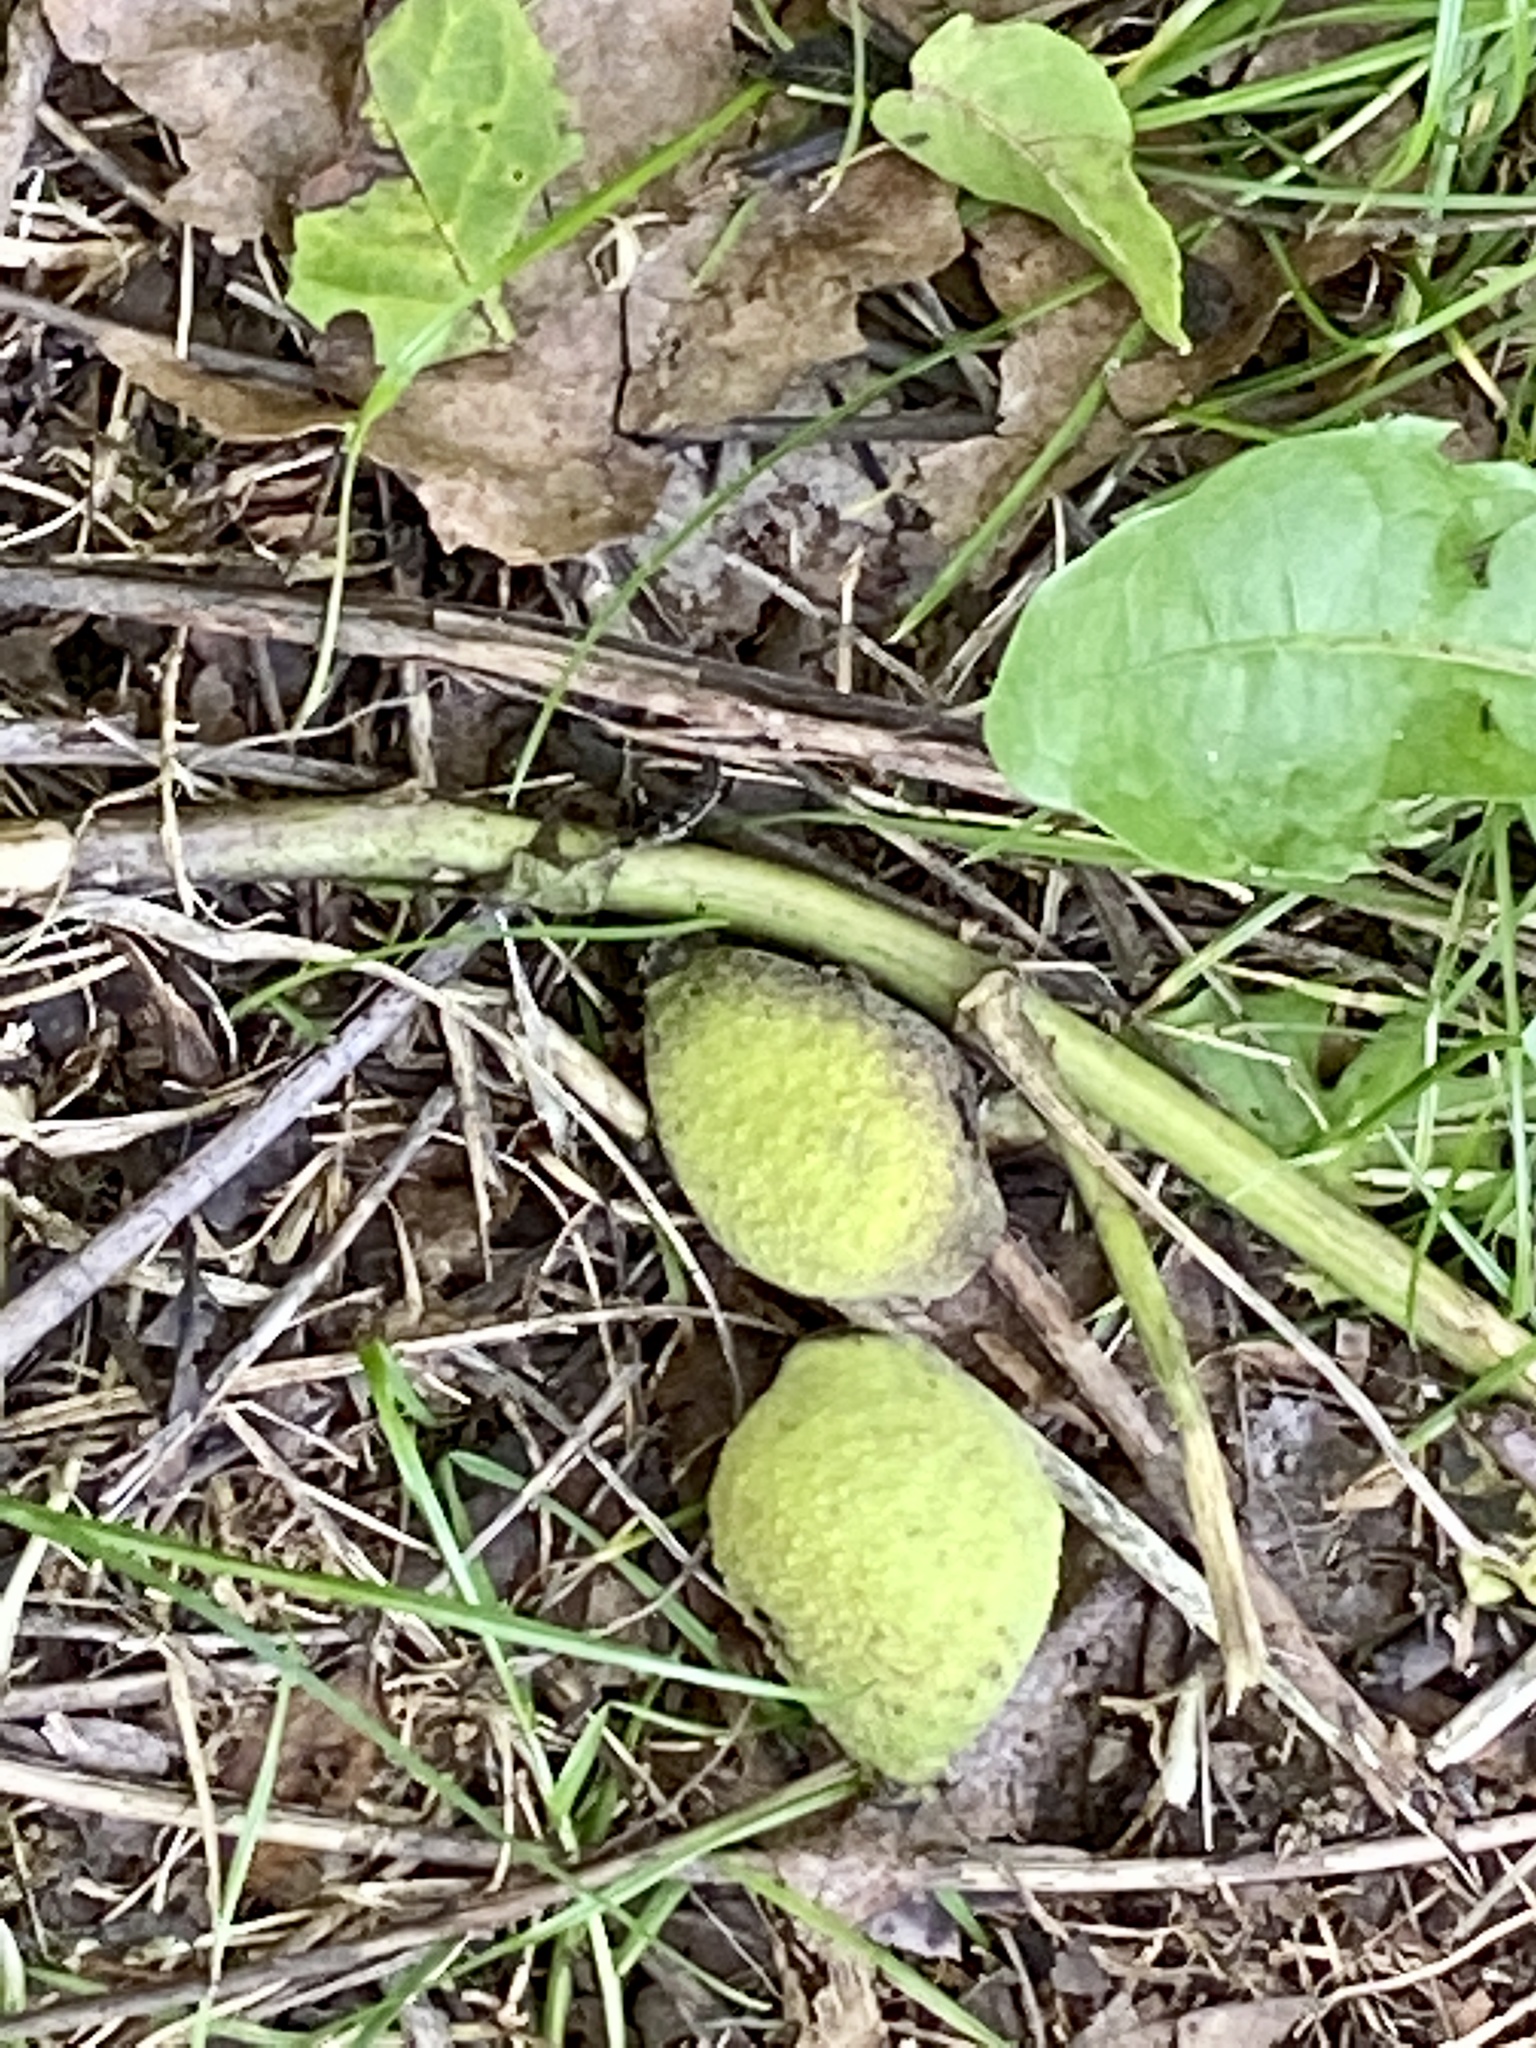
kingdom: Plantae
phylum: Tracheophyta
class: Magnoliopsida
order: Fagales
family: Juglandaceae
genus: Juglans
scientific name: Juglans nigra
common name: Black walnut
